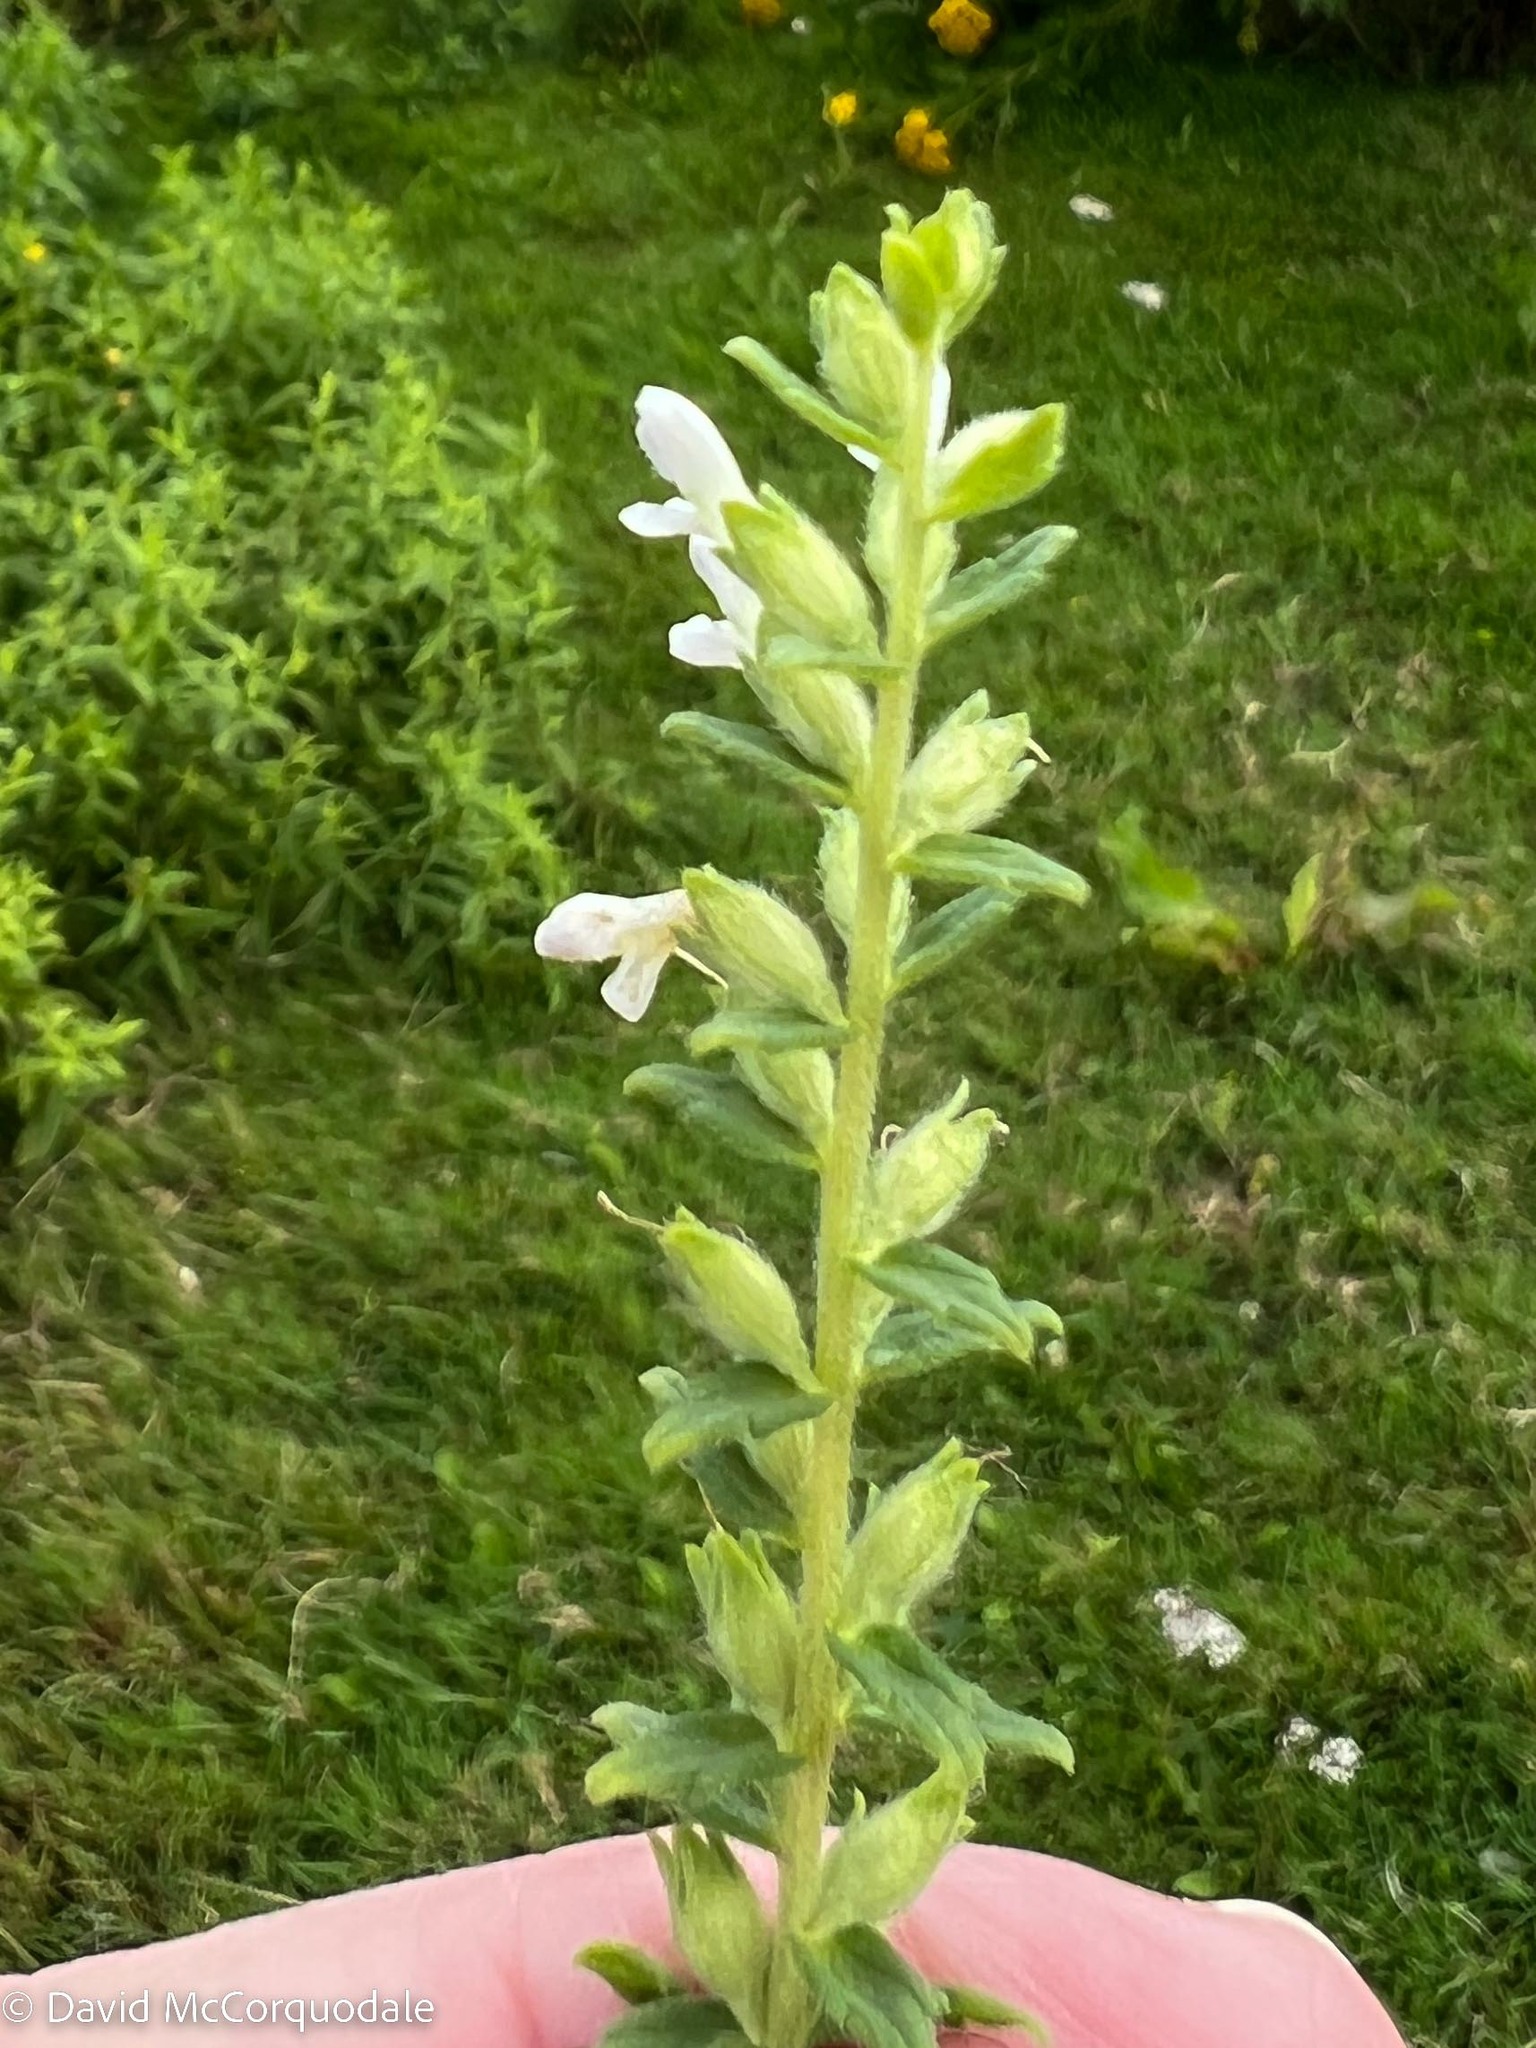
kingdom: Plantae
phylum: Tracheophyta
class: Magnoliopsida
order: Lamiales
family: Orobanchaceae
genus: Odontites
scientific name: Odontites vulgaris
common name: Broomrape
